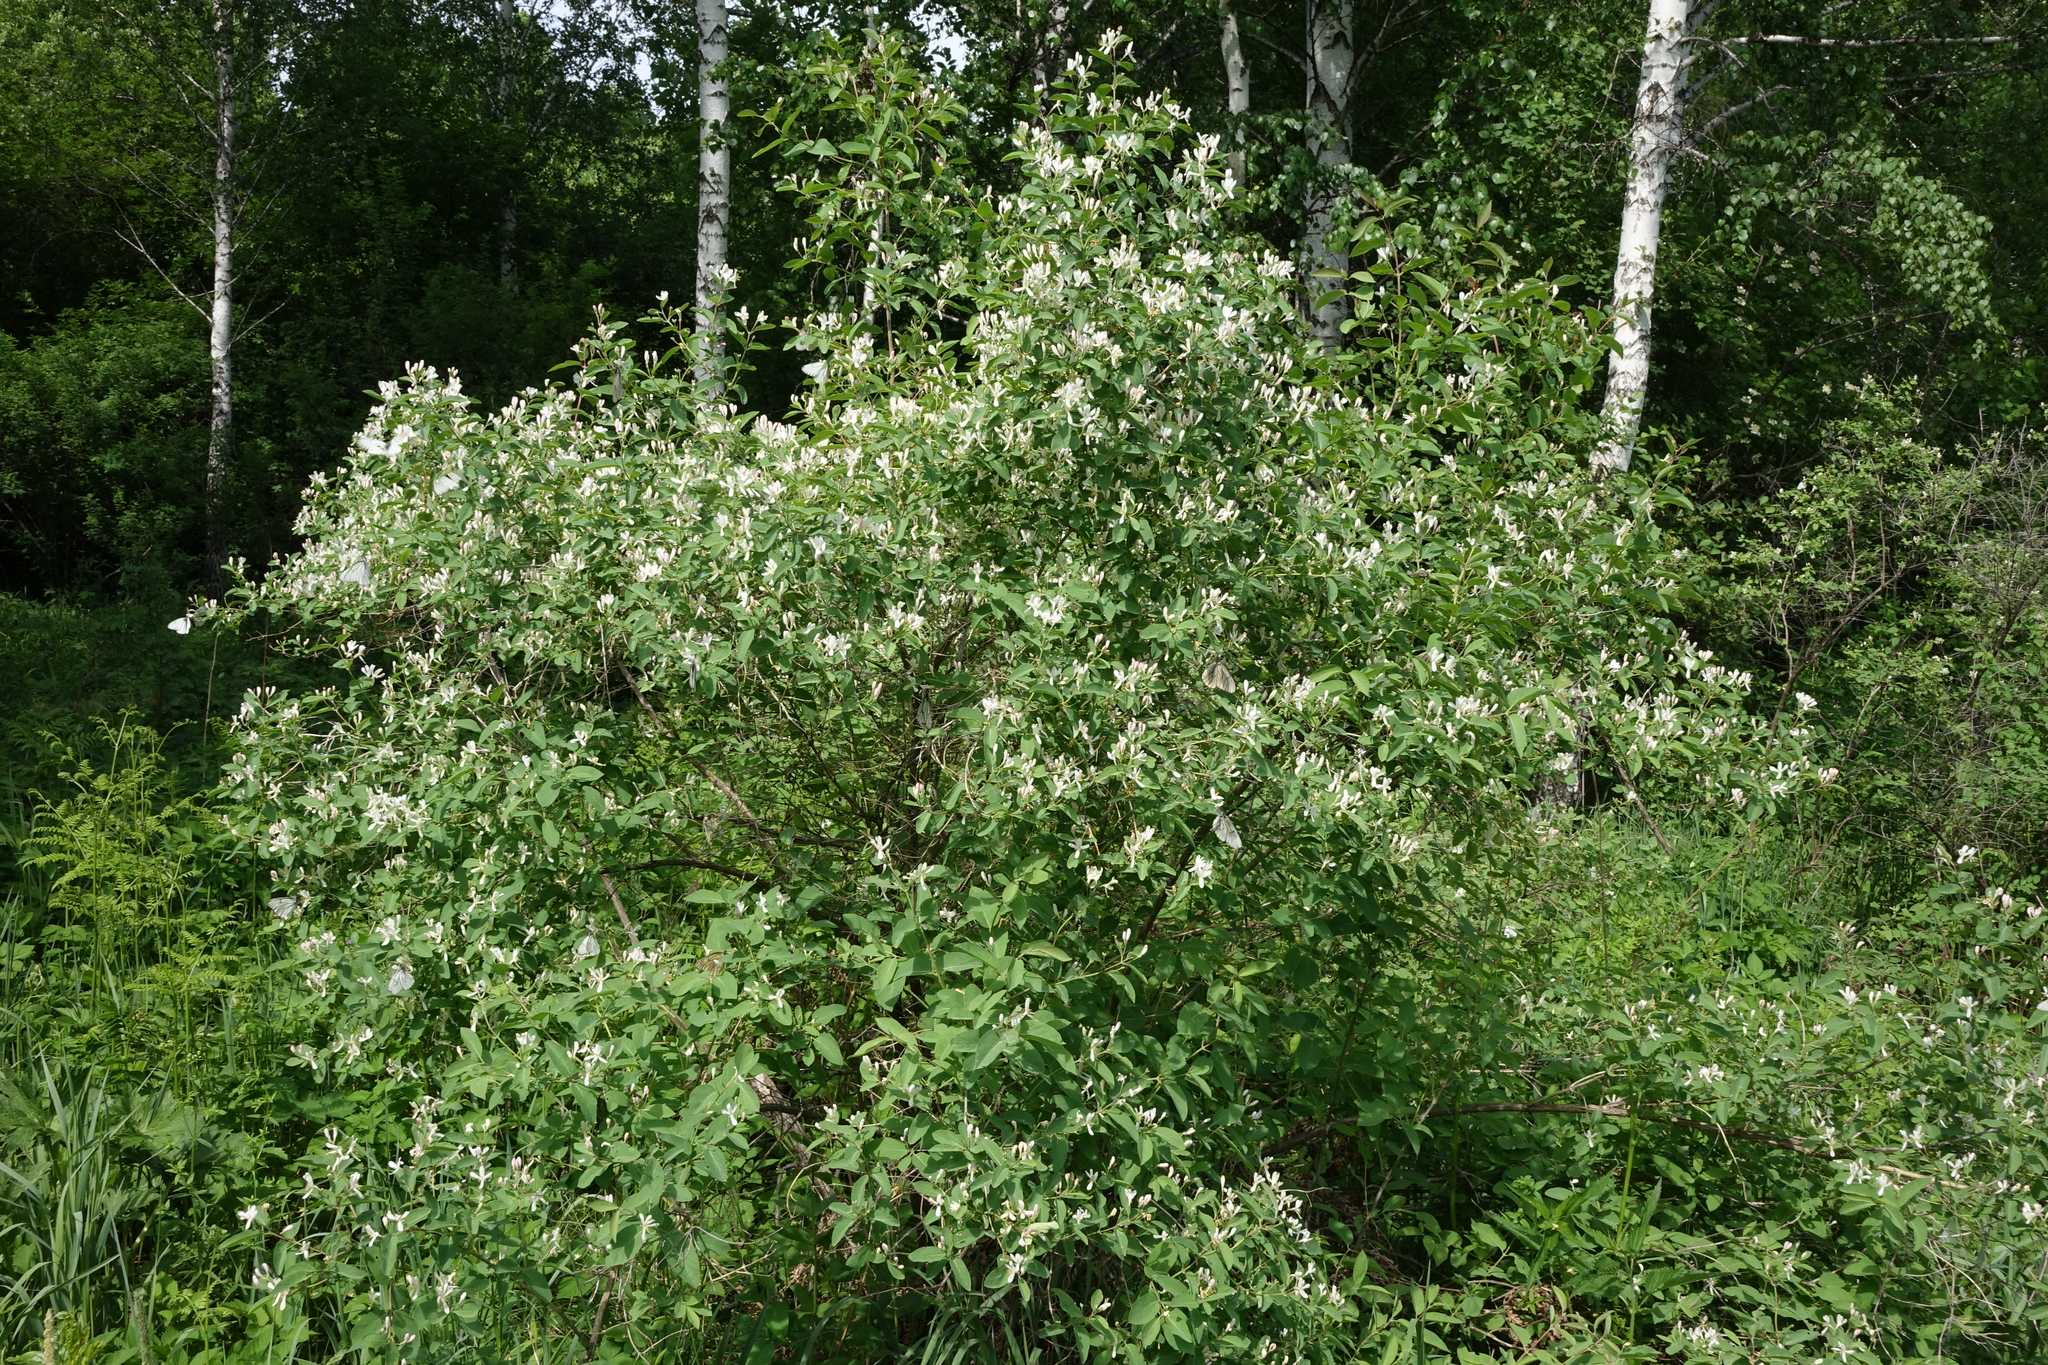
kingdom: Plantae
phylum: Tracheophyta
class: Magnoliopsida
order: Dipsacales
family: Caprifoliaceae
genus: Lonicera
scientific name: Lonicera tatarica
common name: Tatarian honeysuckle
